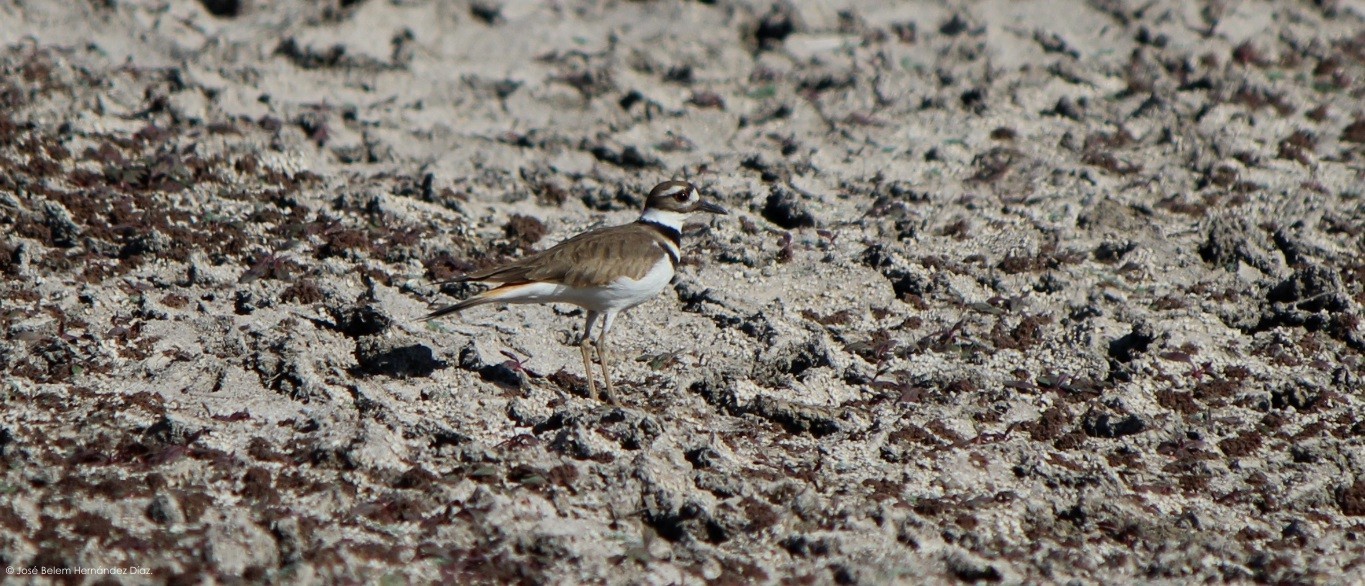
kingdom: Animalia
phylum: Chordata
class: Aves
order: Charadriiformes
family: Charadriidae
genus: Charadrius
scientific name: Charadrius vociferus
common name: Killdeer
